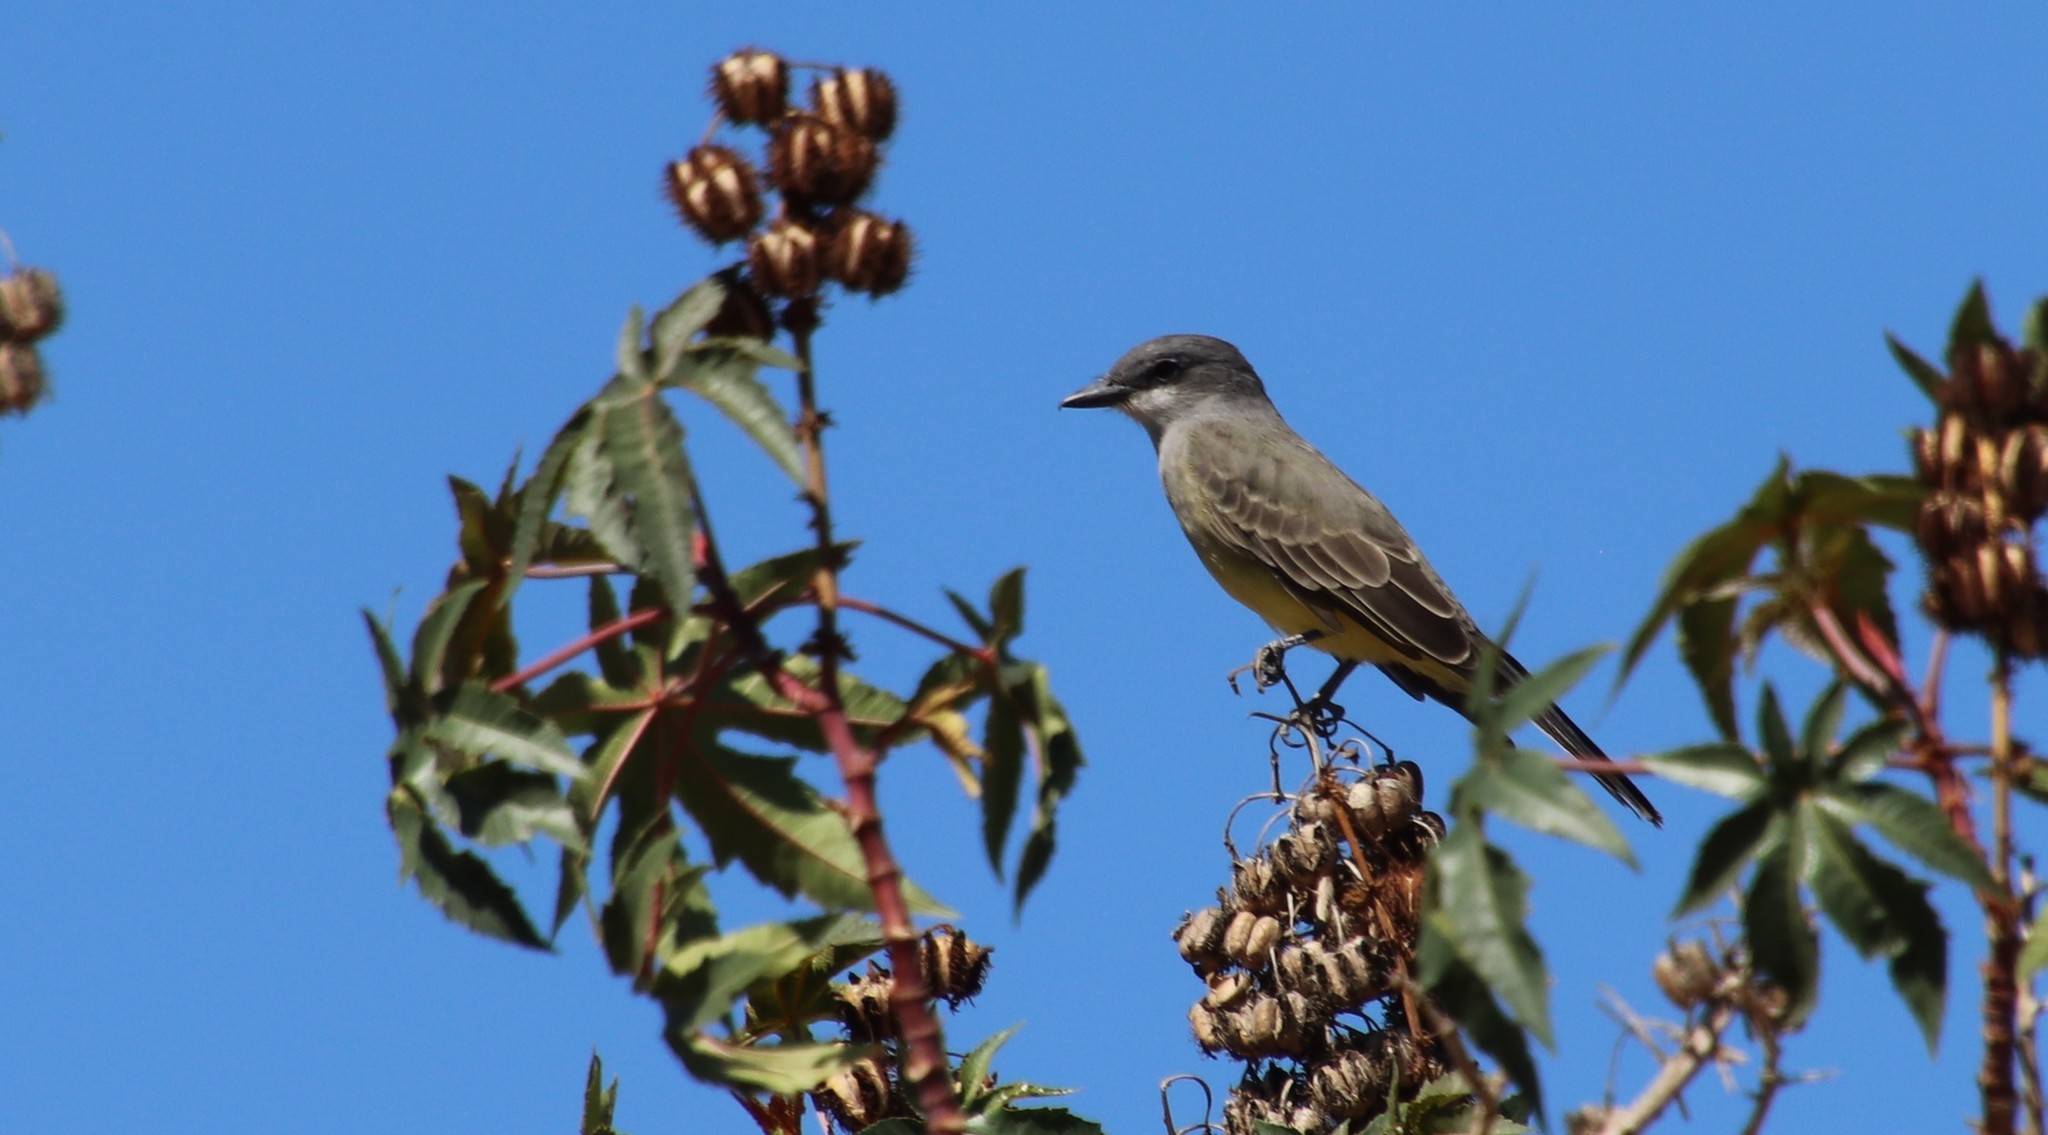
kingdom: Animalia
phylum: Chordata
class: Aves
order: Passeriformes
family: Tyrannidae
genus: Tyrannus
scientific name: Tyrannus vociferans
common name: Cassin's kingbird
